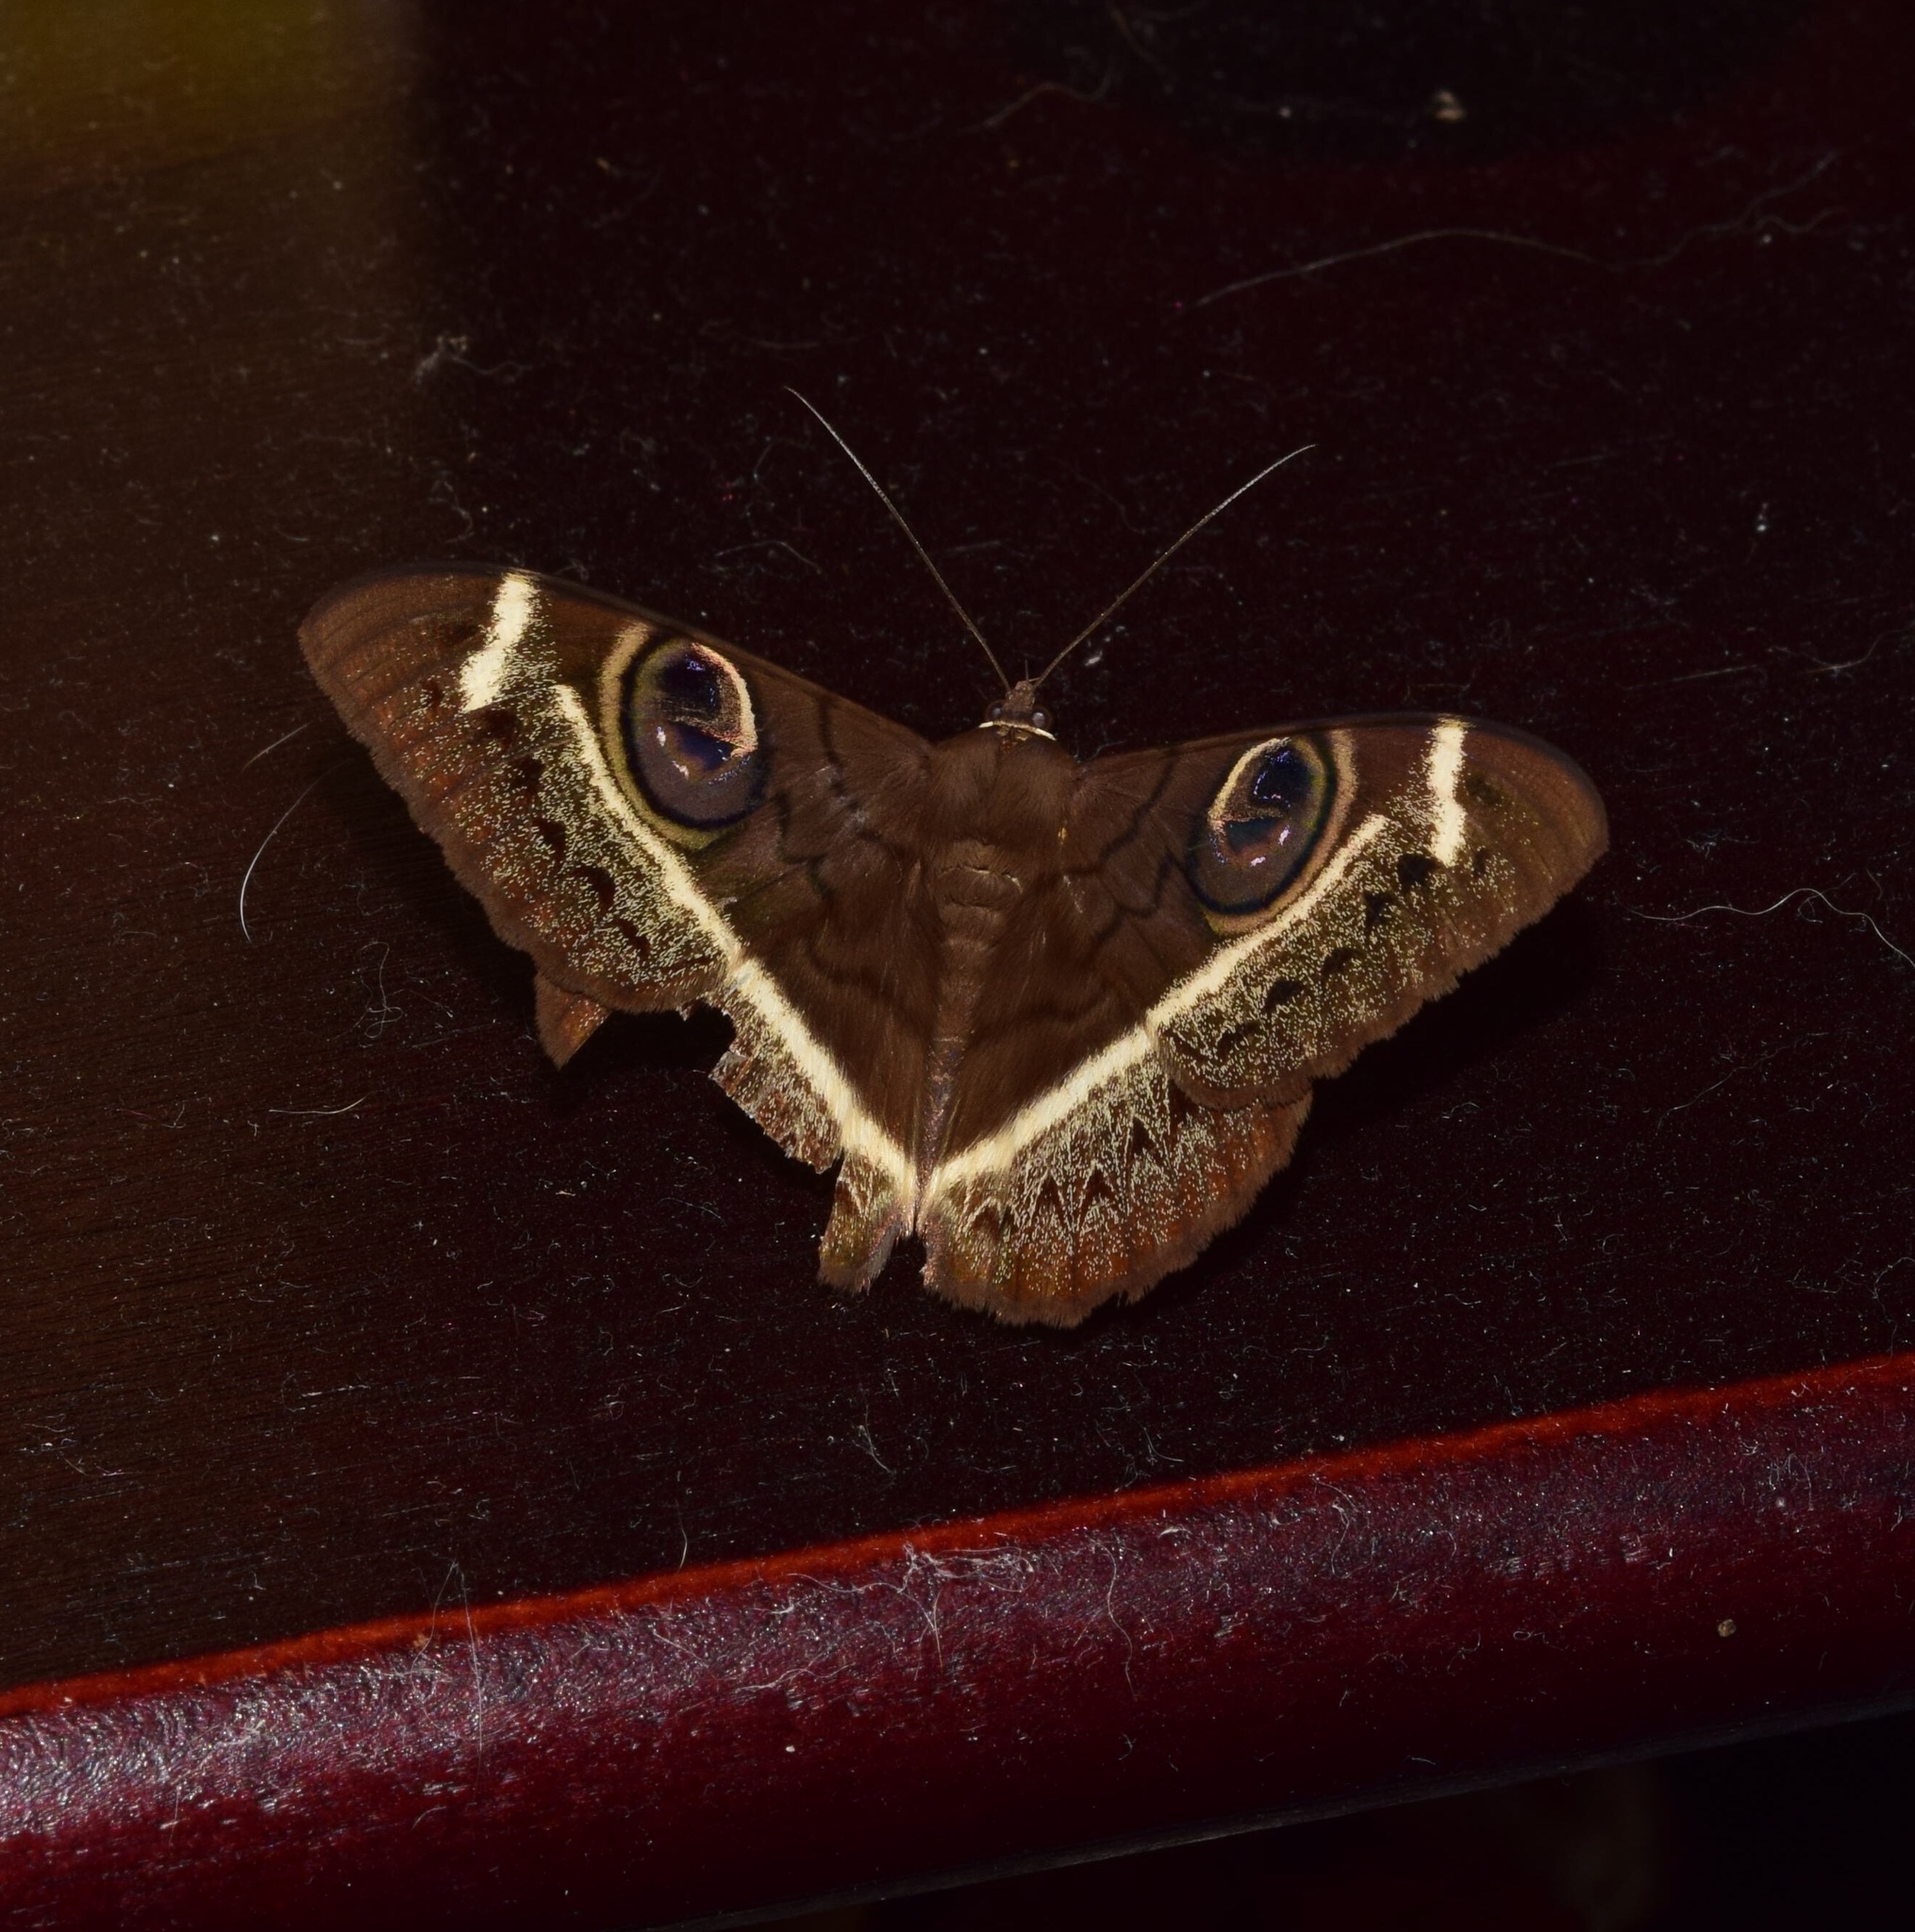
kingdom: Animalia
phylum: Arthropoda
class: Insecta
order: Lepidoptera
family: Erebidae
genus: Cyligramma
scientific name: Cyligramma latona
